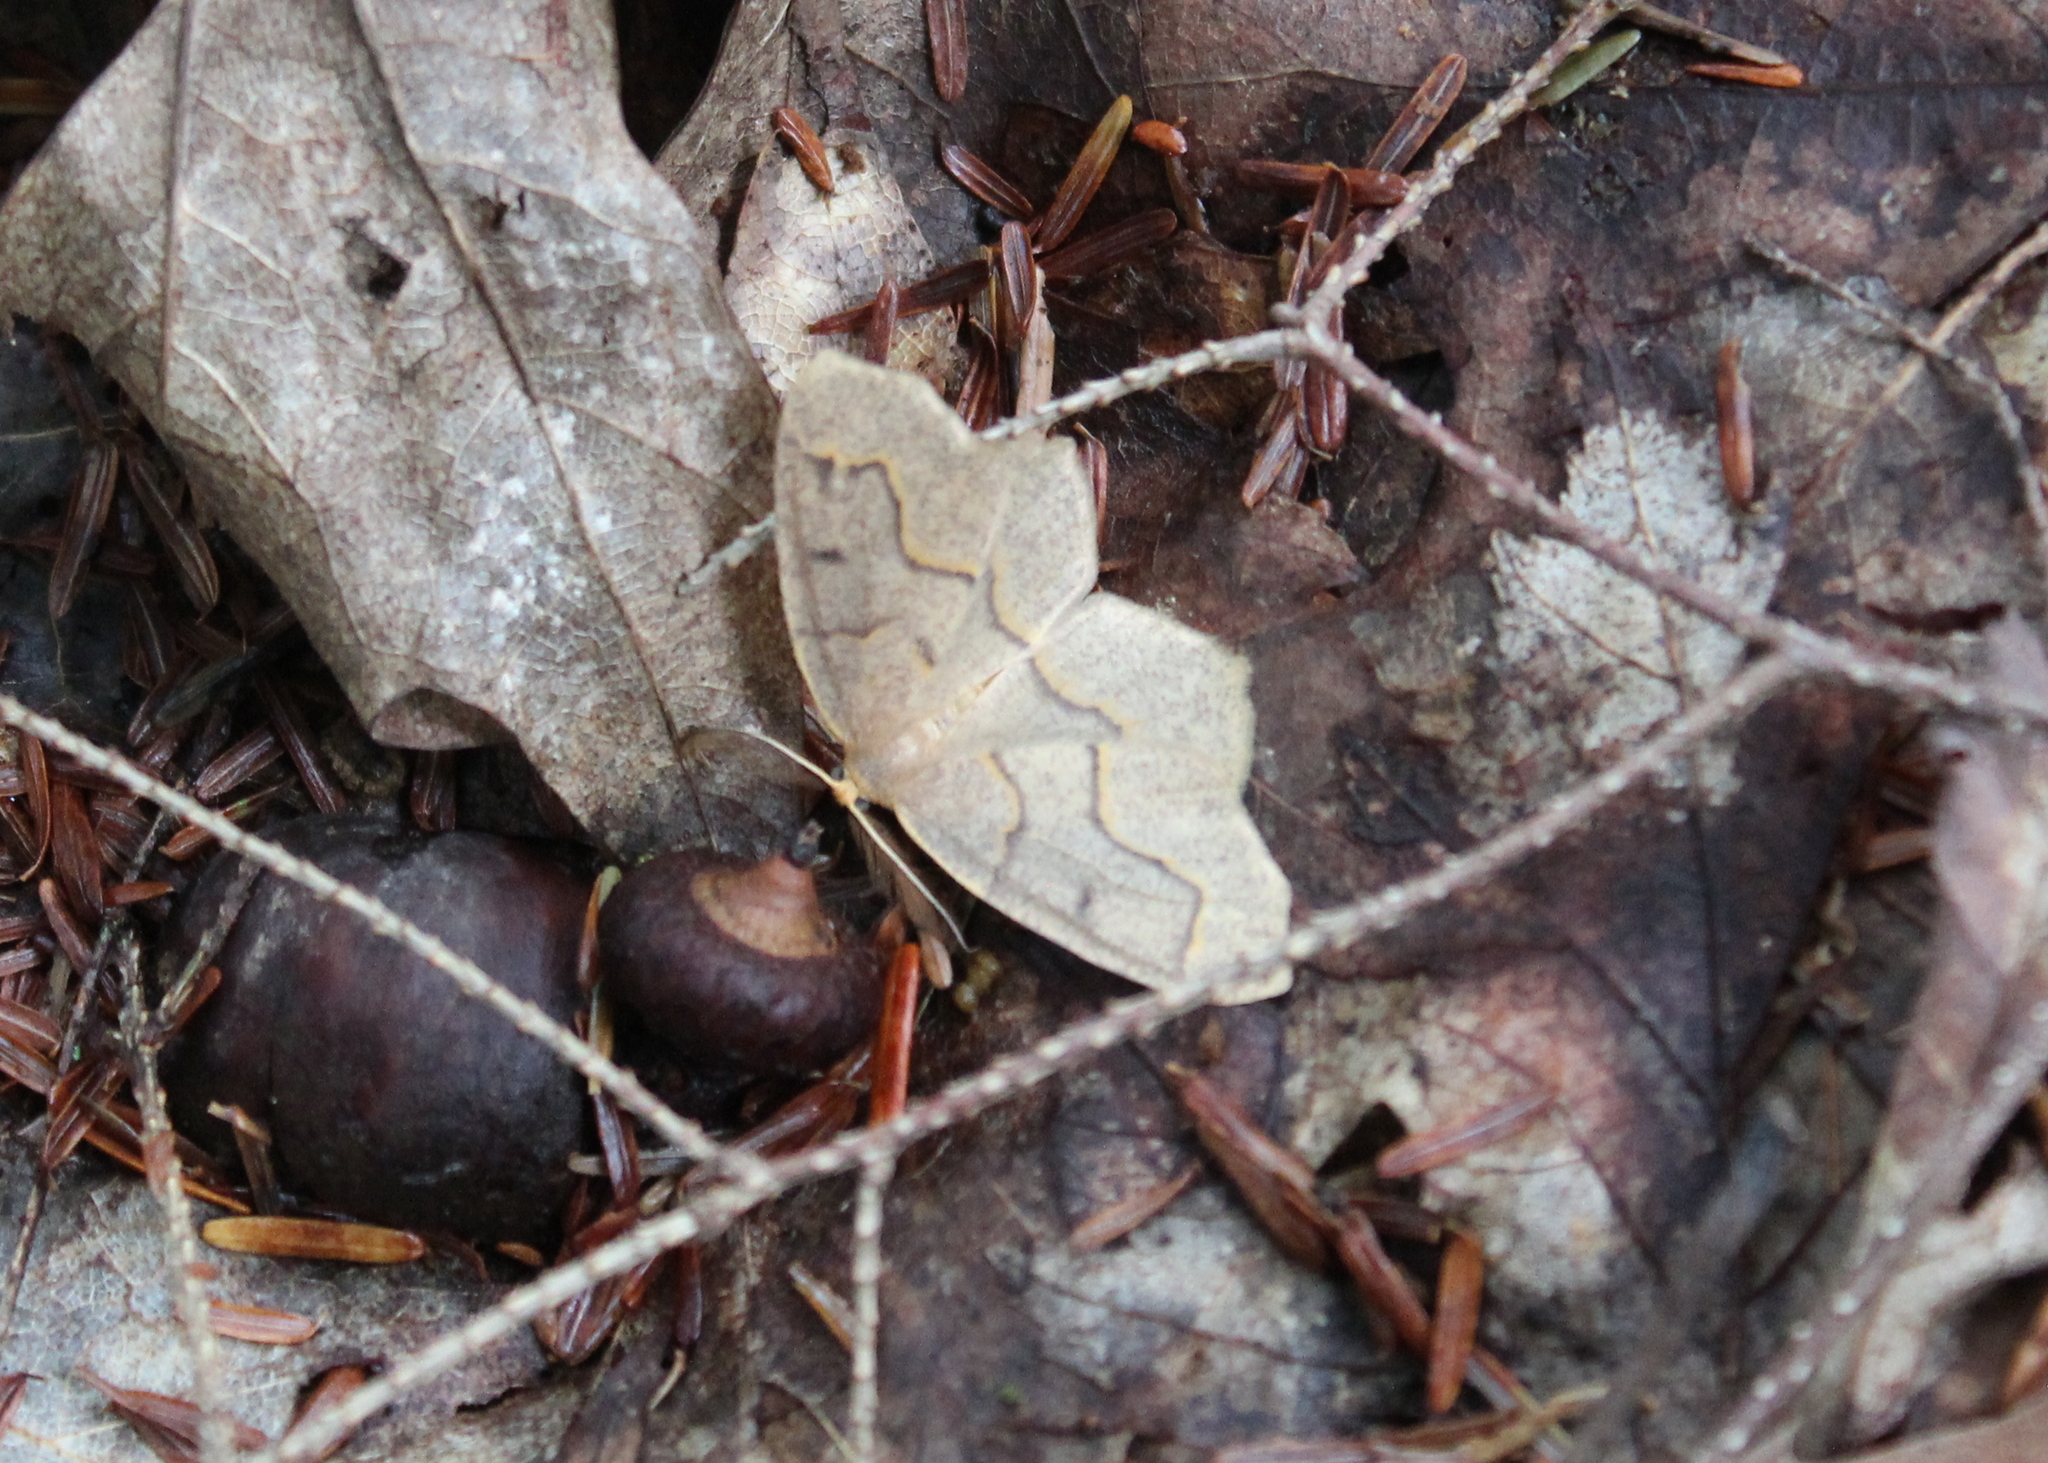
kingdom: Animalia
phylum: Arthropoda
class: Insecta
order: Lepidoptera
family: Geometridae
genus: Lambdina
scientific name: Lambdina fiscellaria
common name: Hemlock looper
